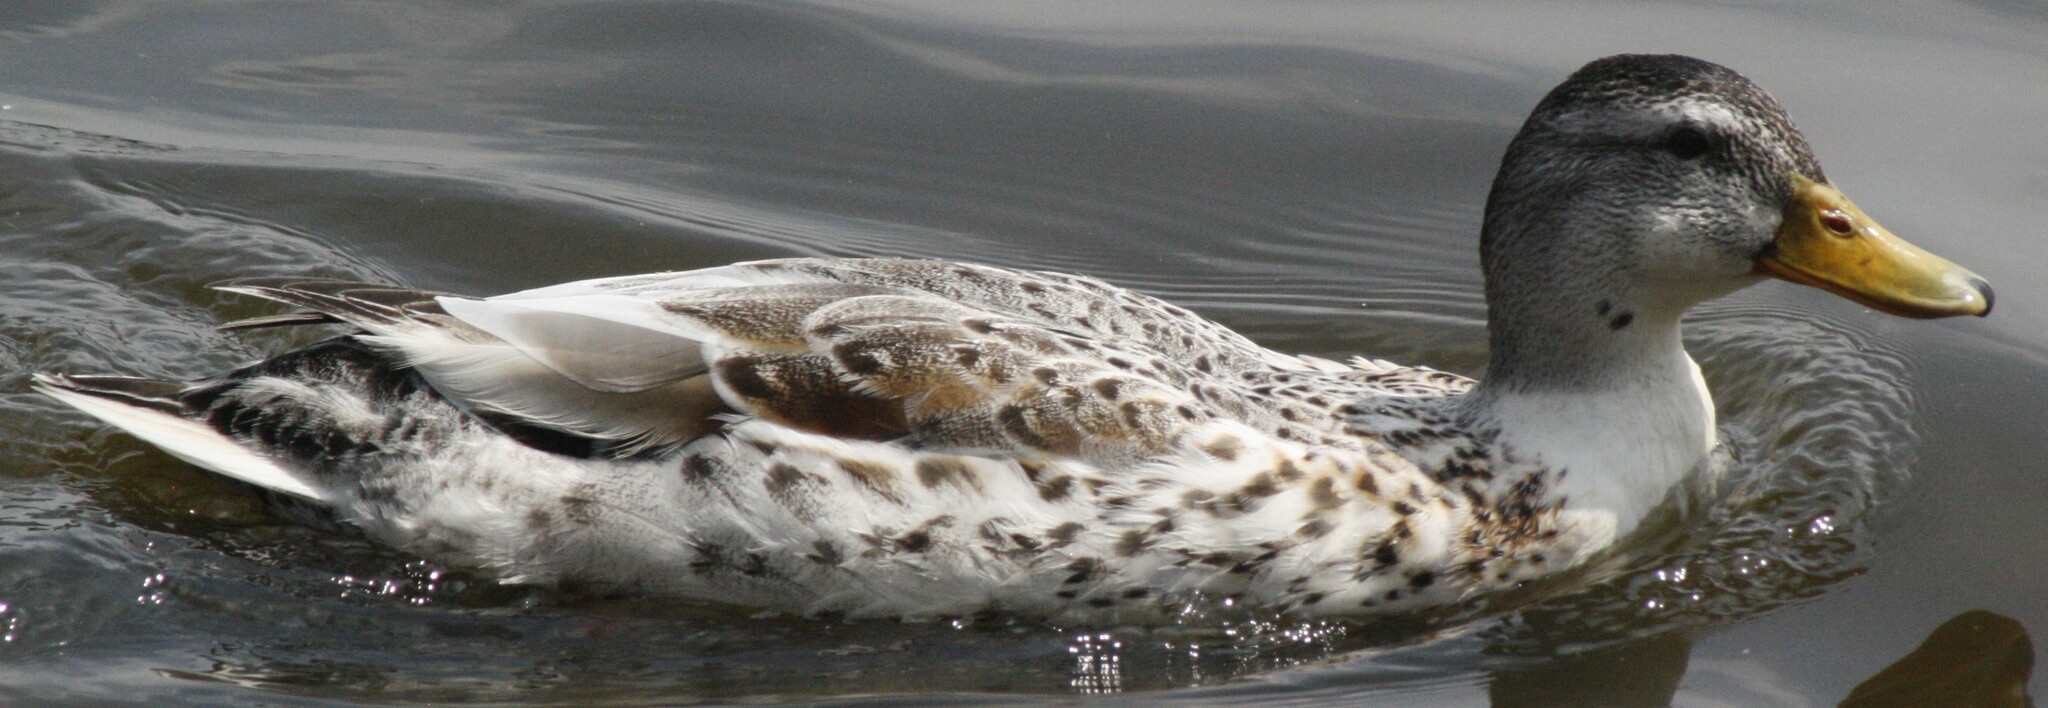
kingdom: Animalia
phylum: Chordata
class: Aves
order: Anseriformes
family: Anatidae
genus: Anas
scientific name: Anas platyrhynchos
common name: Mallard
